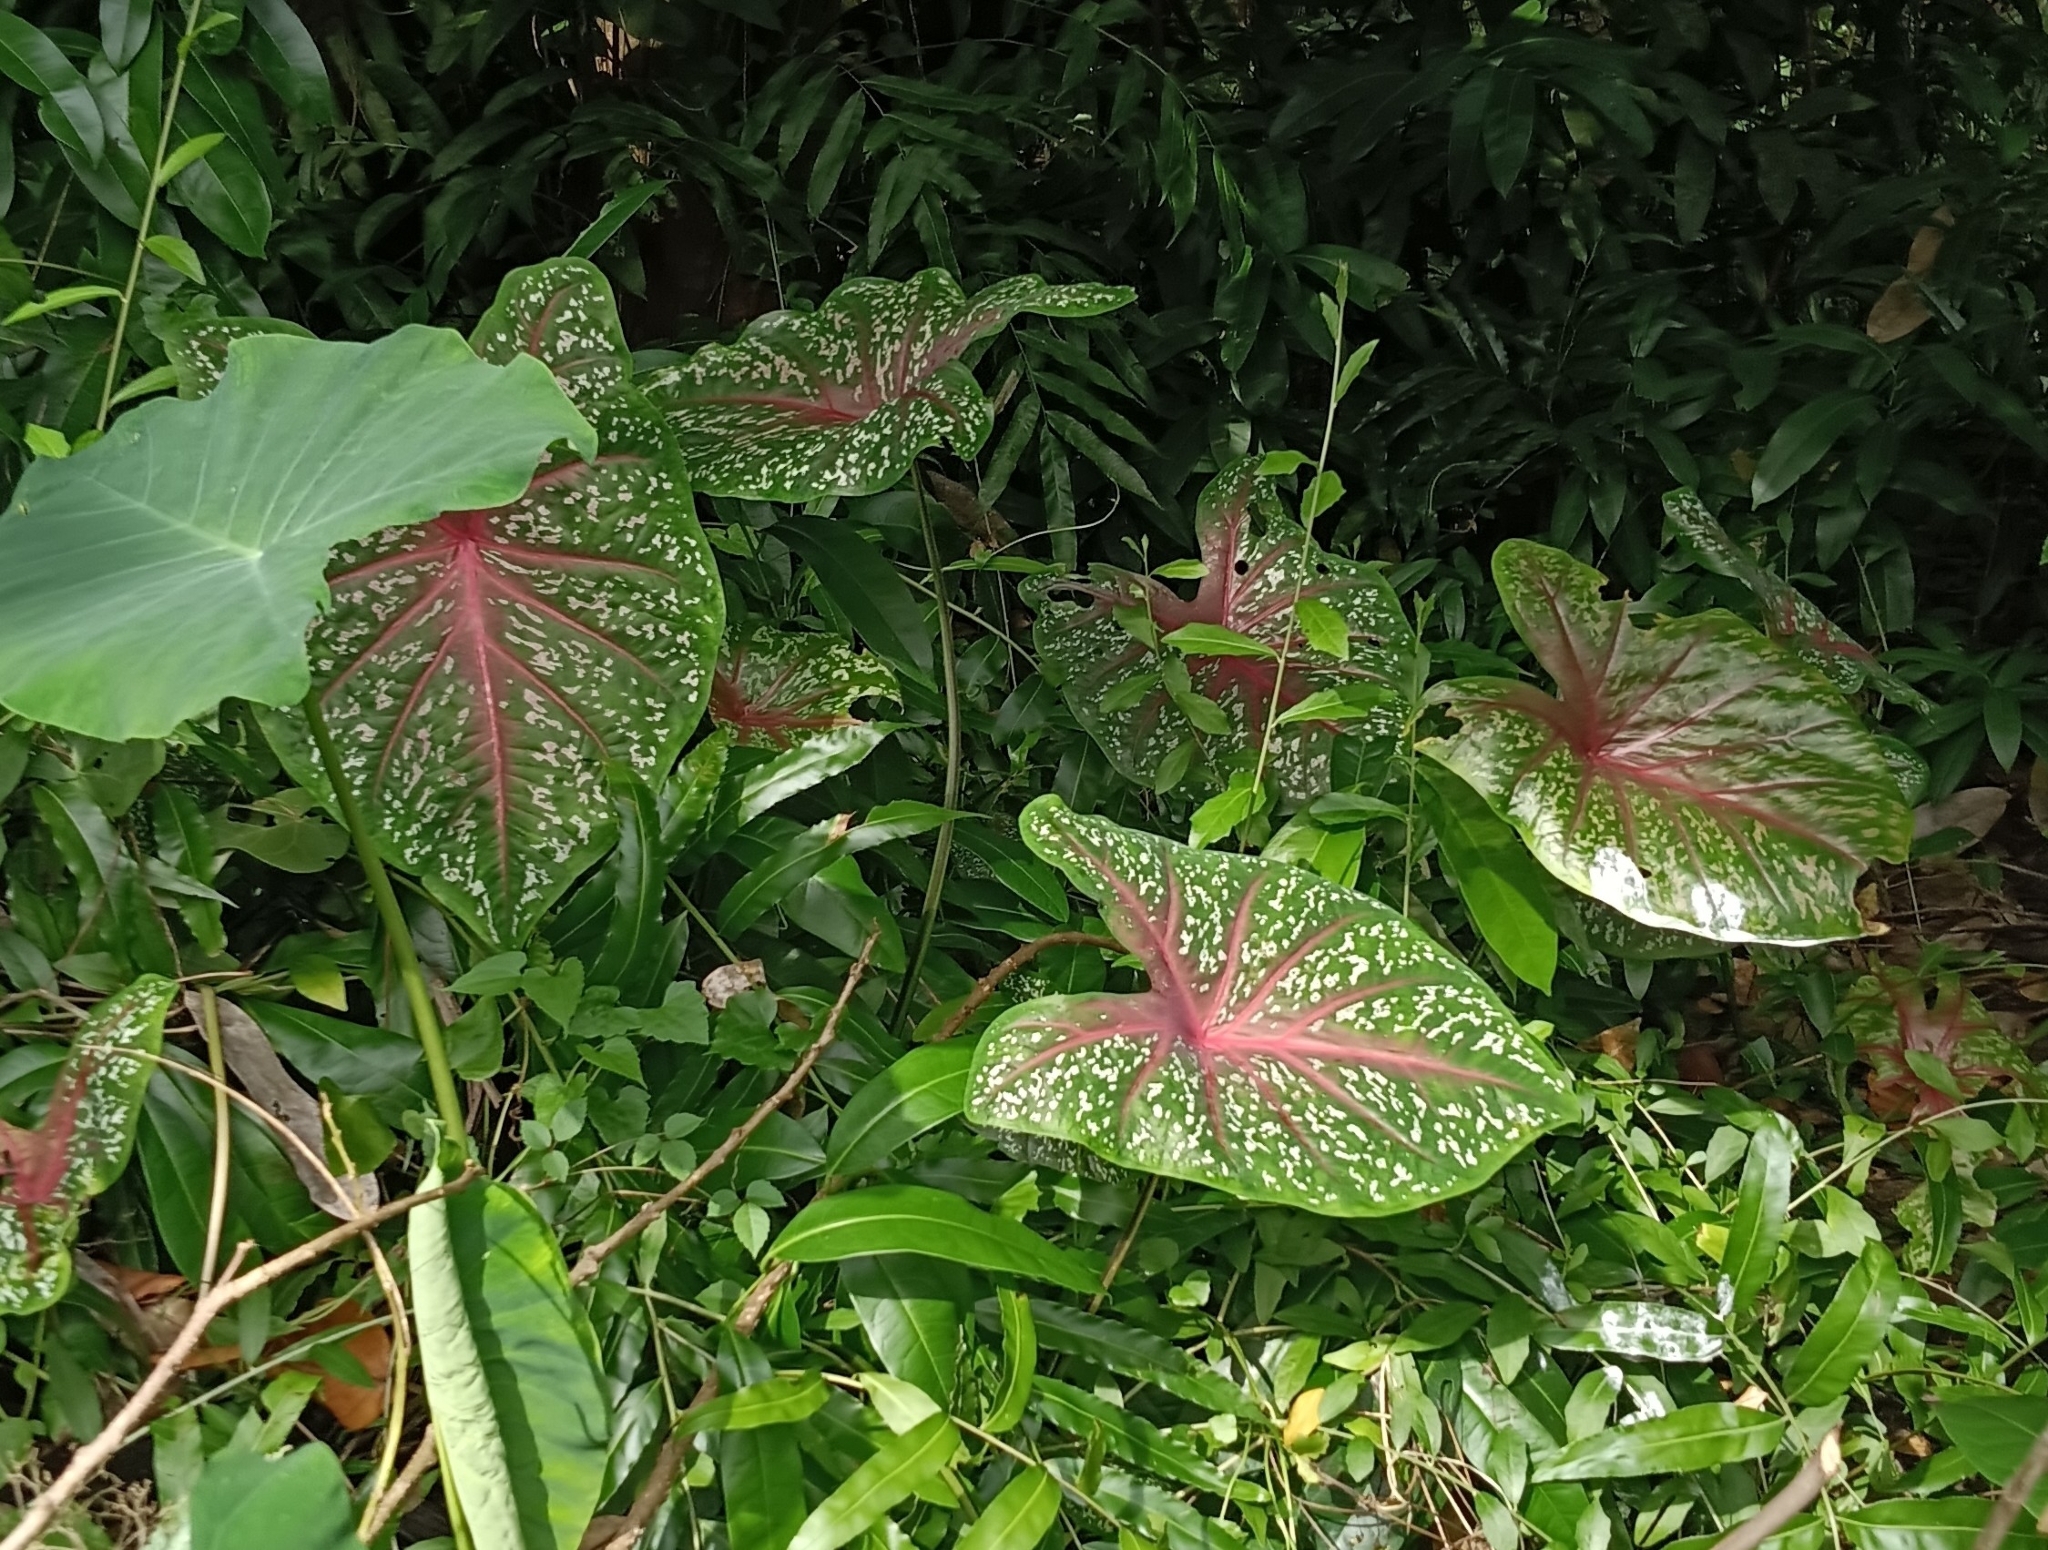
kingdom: Plantae
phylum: Tracheophyta
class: Liliopsida
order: Alismatales
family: Araceae
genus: Caladium
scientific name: Caladium bicolor
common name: Artist's pallet
